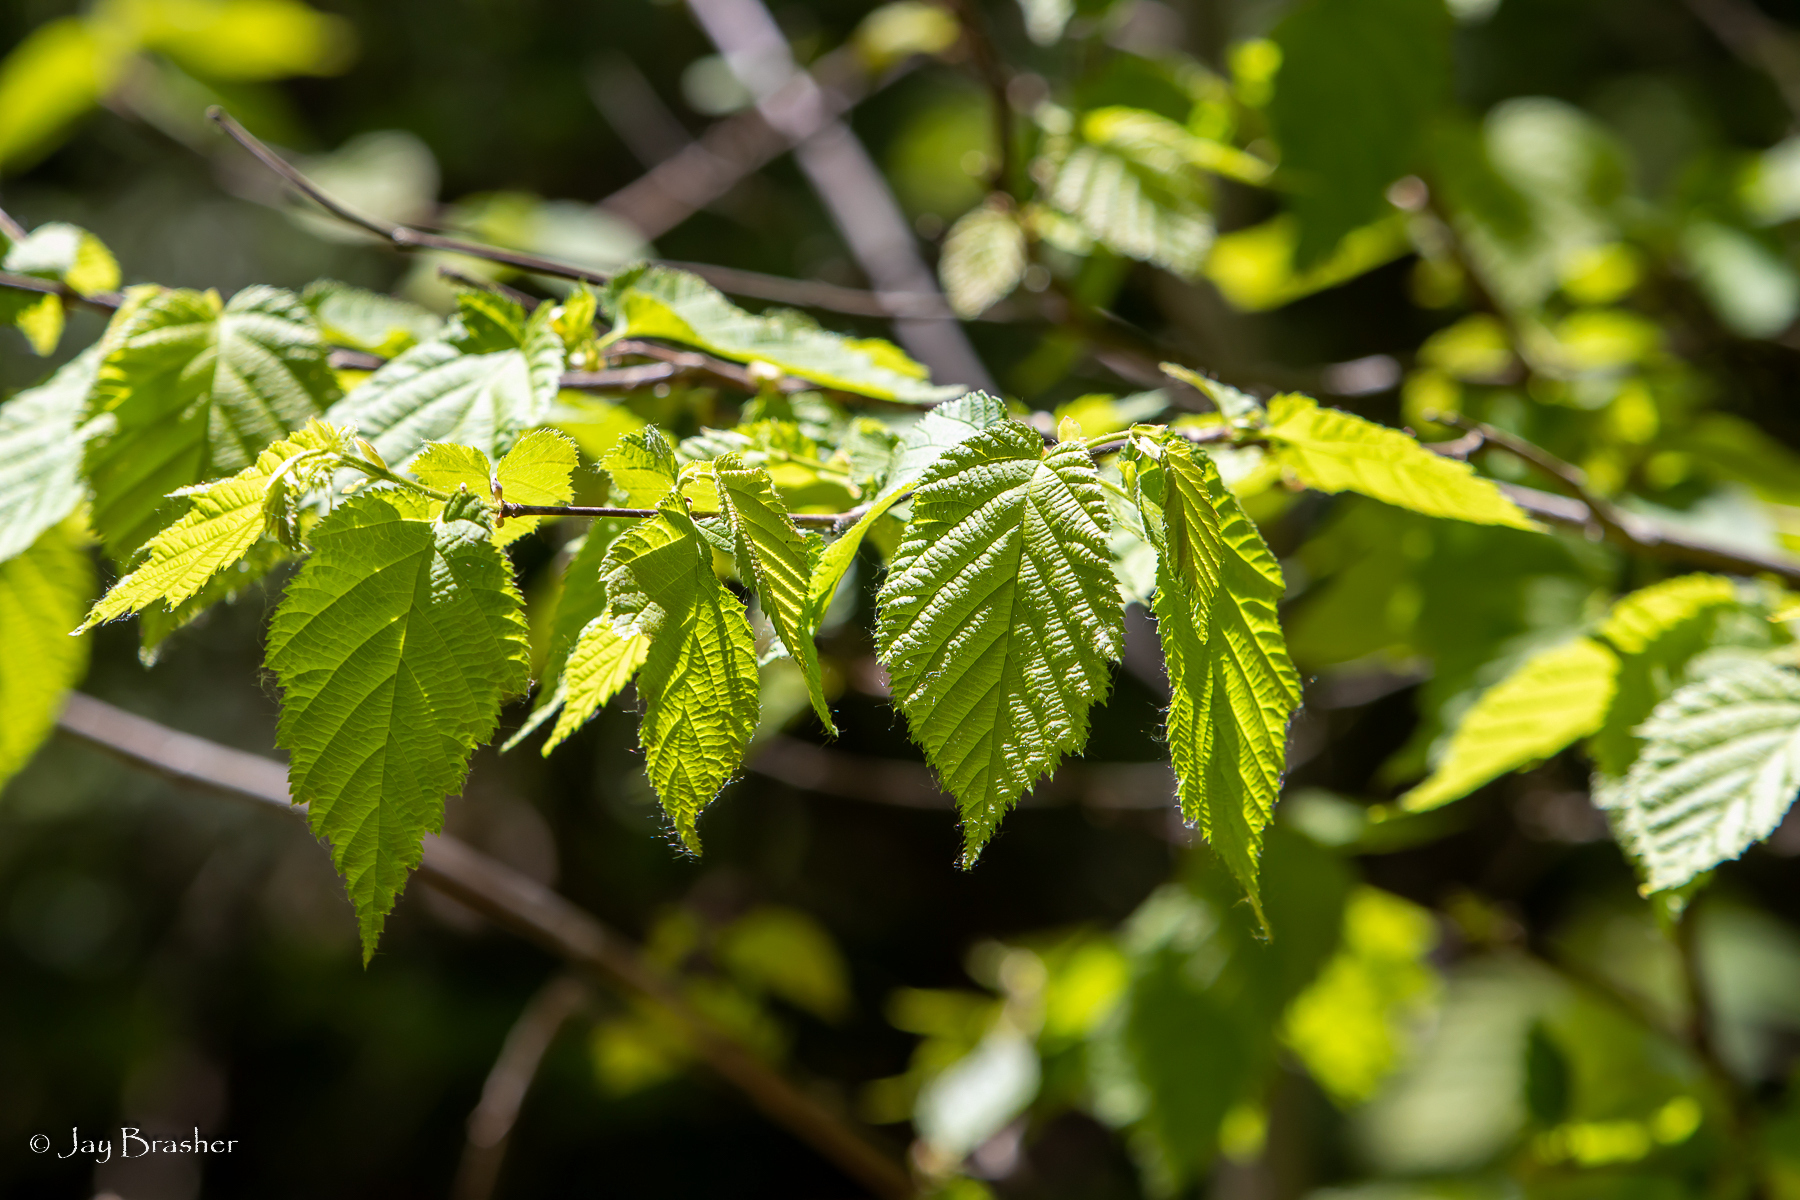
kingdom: Plantae
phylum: Tracheophyta
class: Magnoliopsida
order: Fagales
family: Betulaceae
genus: Corylus
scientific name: Corylus cornuta
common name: Beaked hazel
